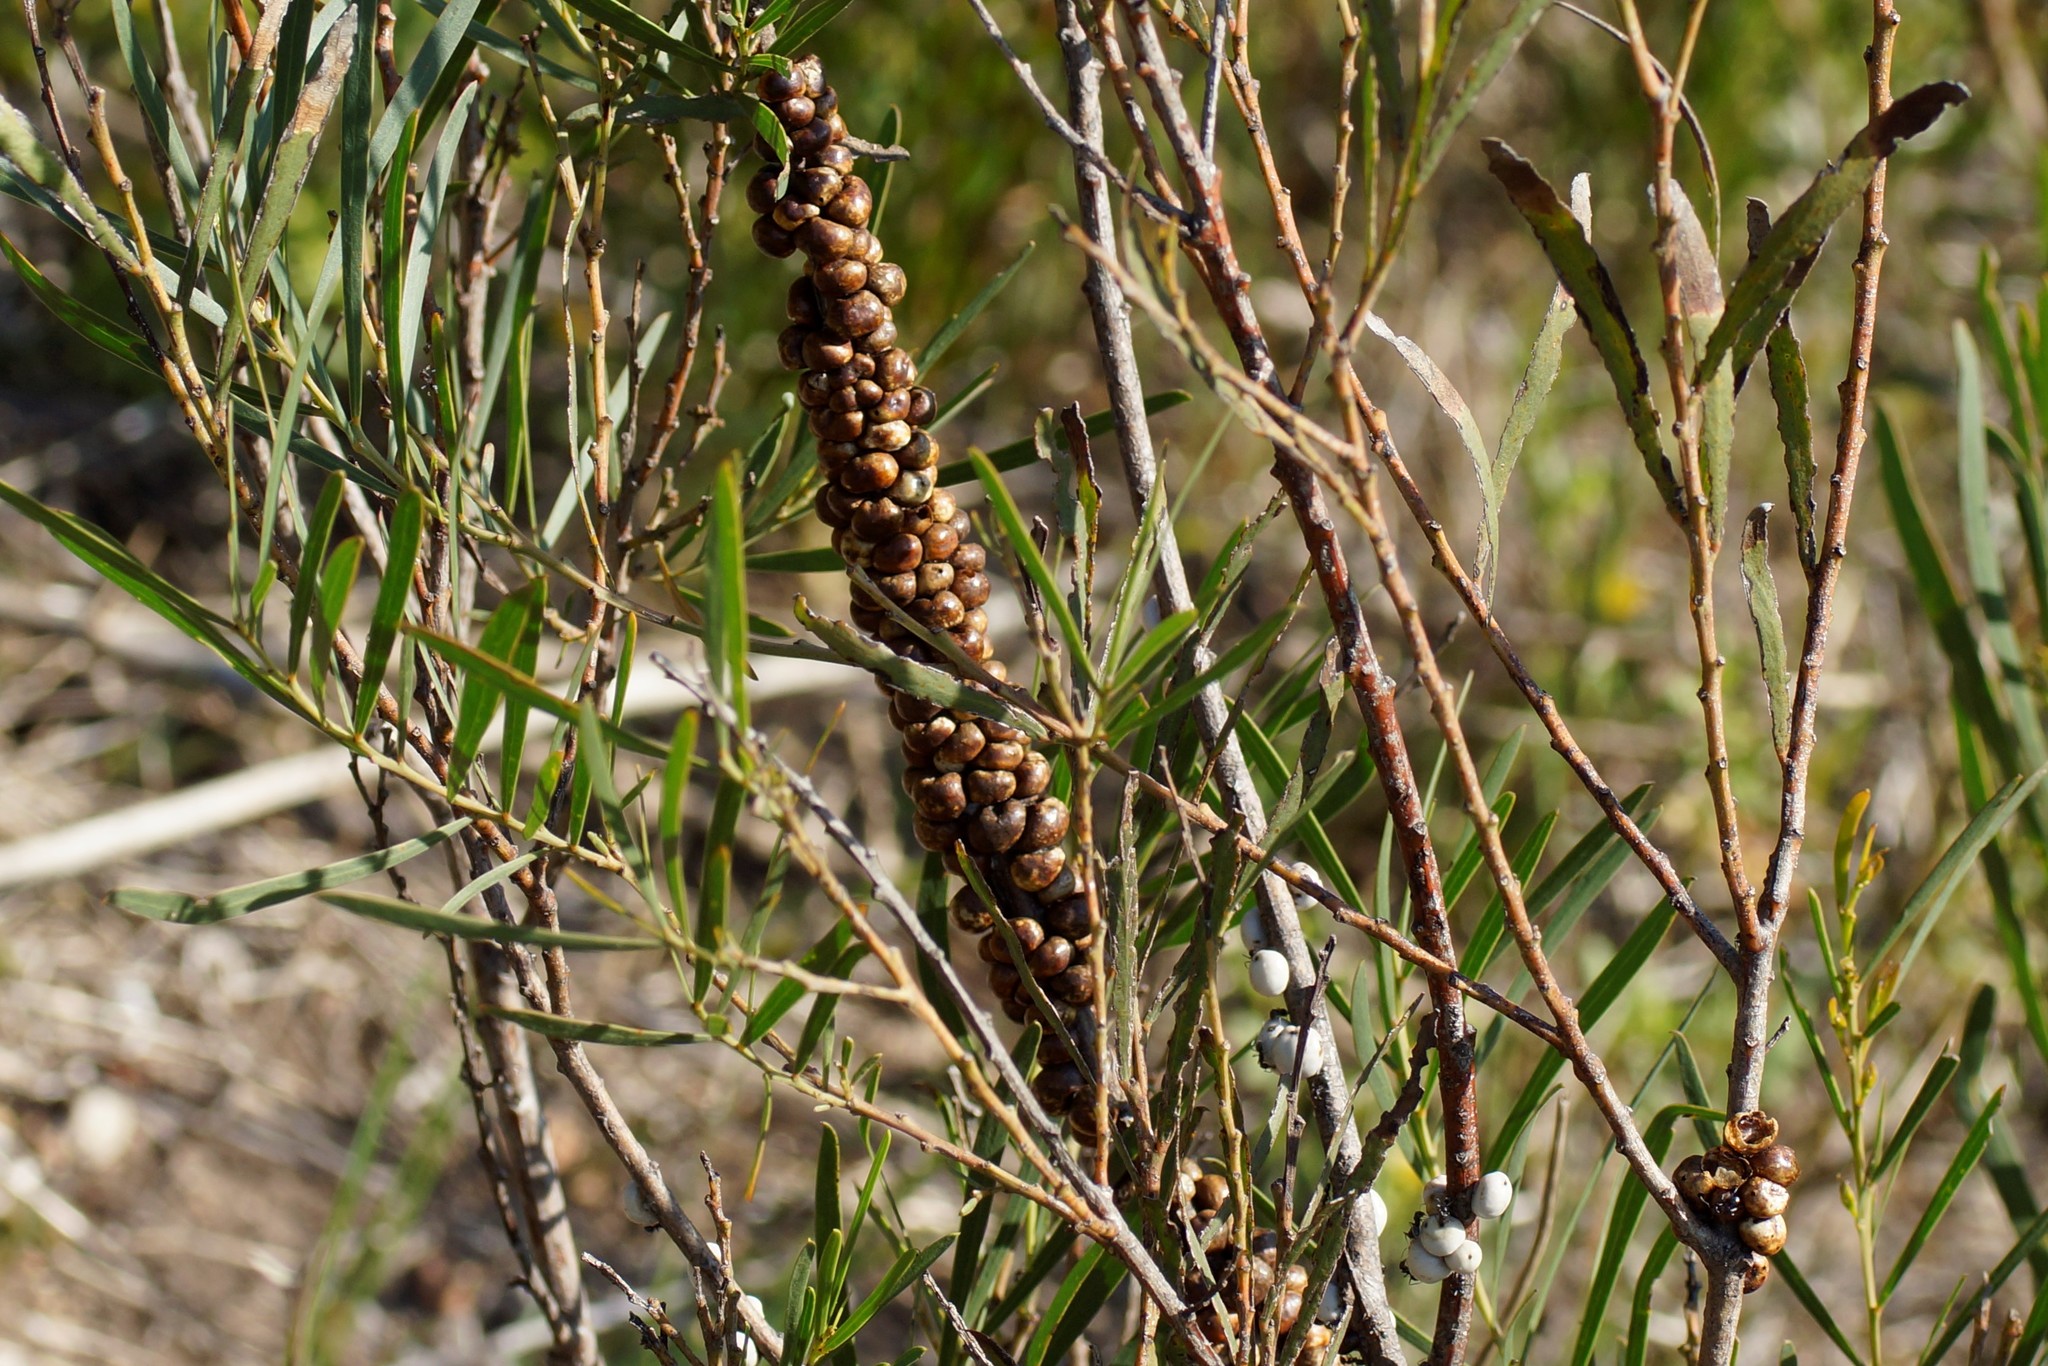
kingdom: Animalia
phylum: Arthropoda
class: Insecta
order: Hemiptera
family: Coccidae
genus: Cryptes
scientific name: Cryptes baccatus
